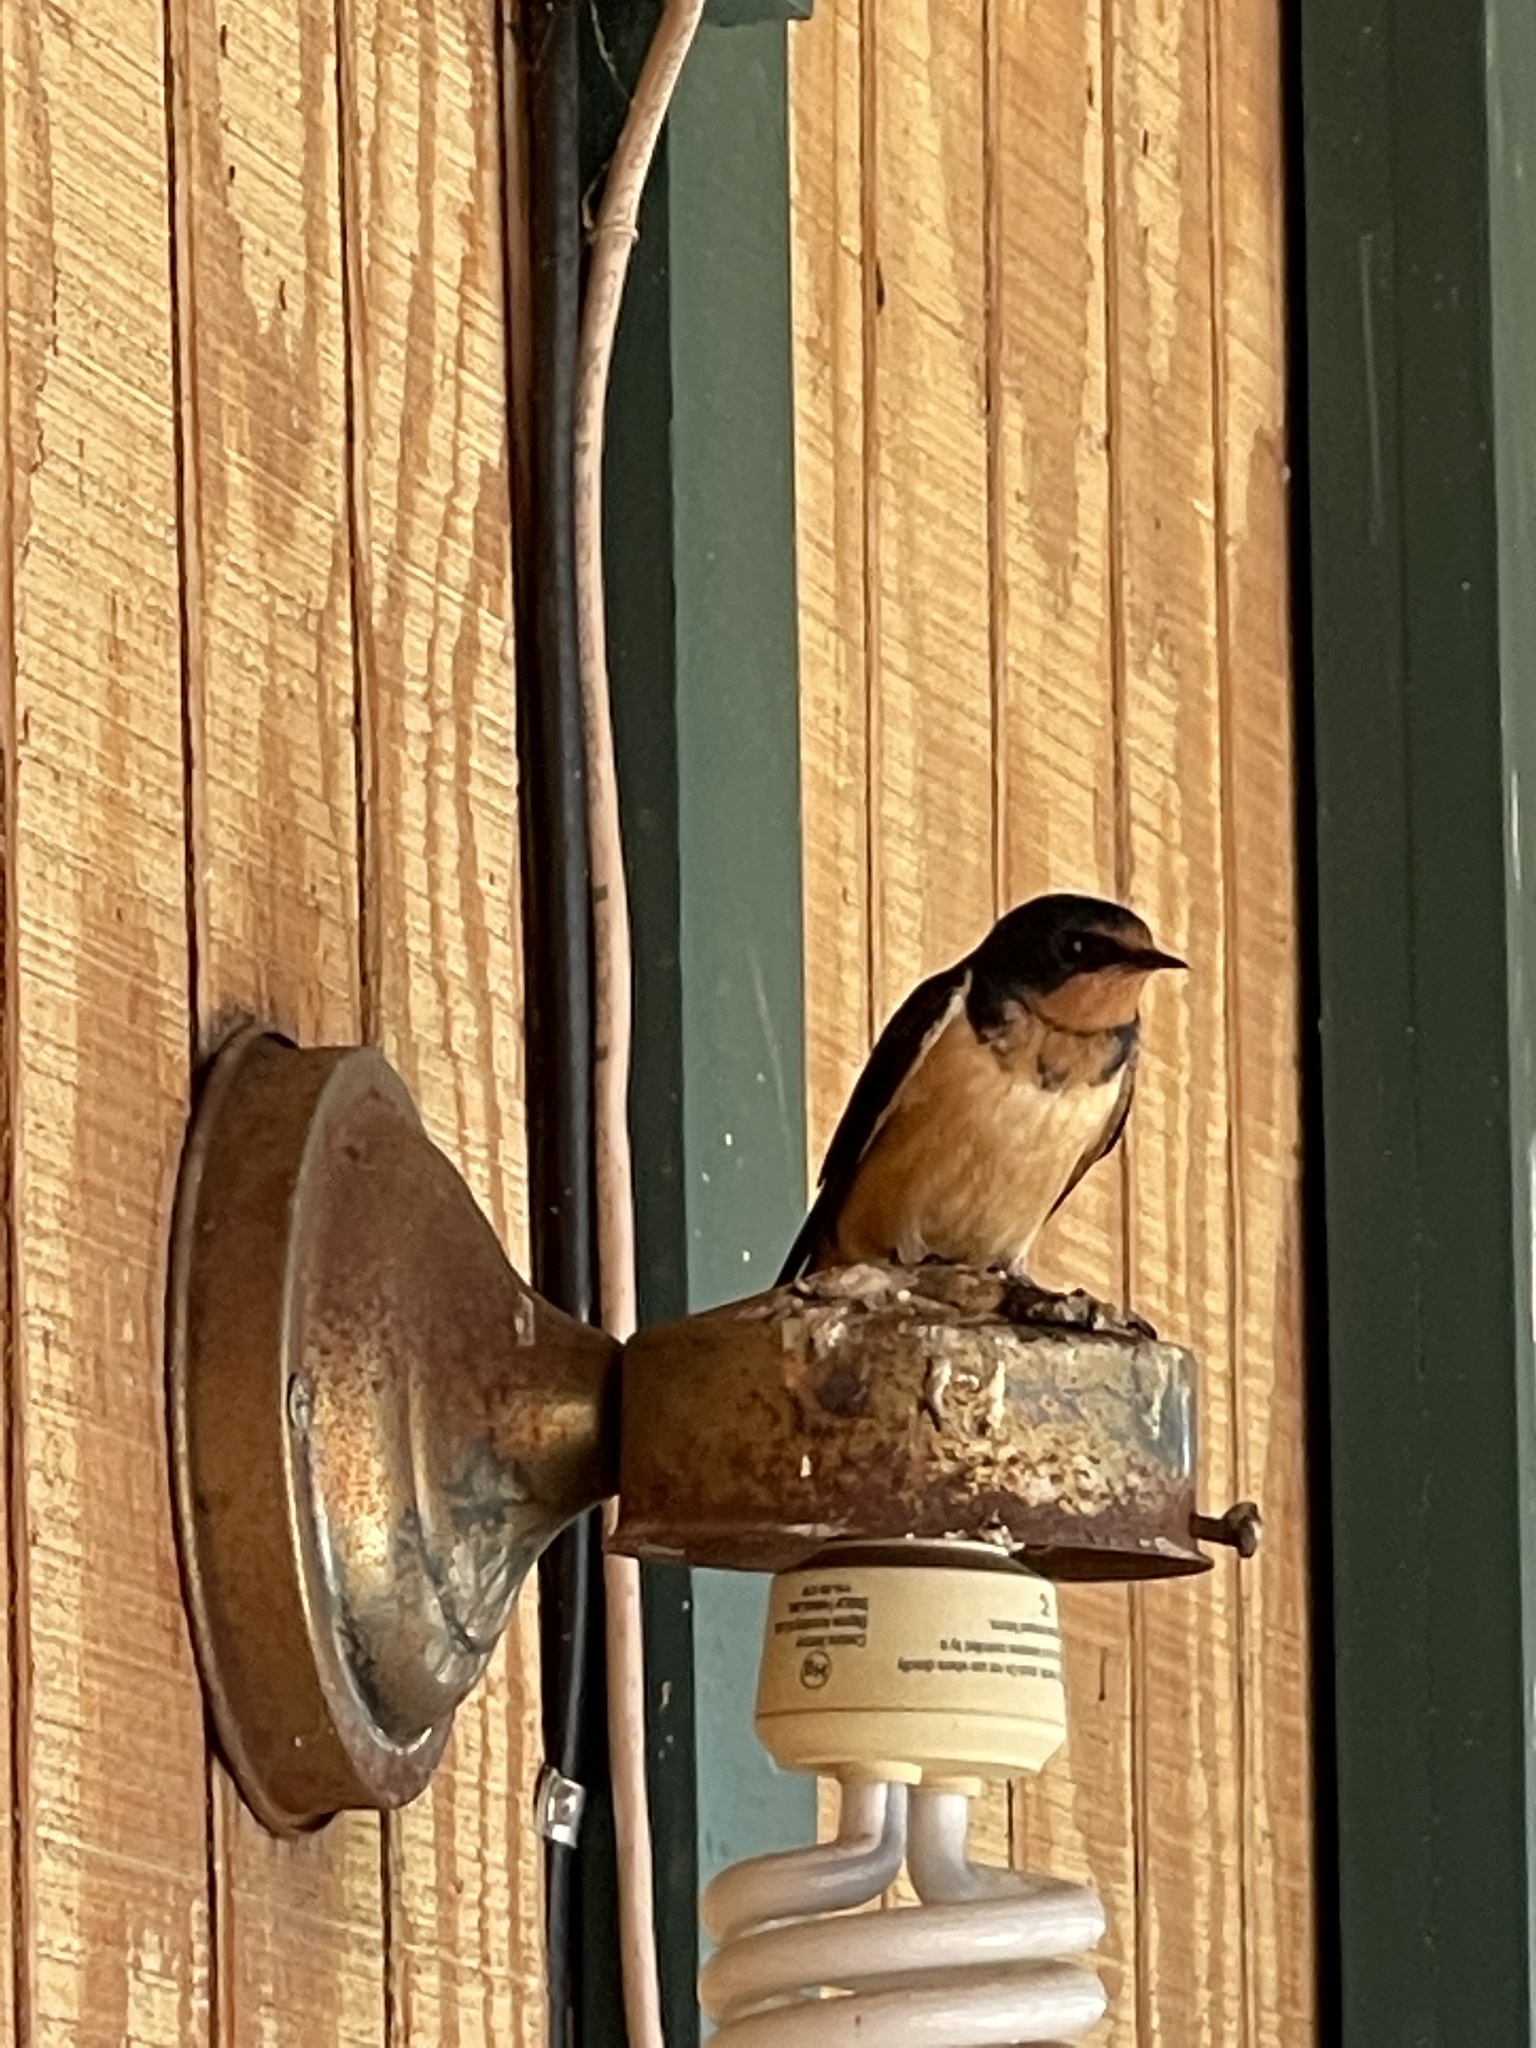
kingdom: Animalia
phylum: Chordata
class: Aves
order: Passeriformes
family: Hirundinidae
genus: Hirundo
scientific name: Hirundo rustica
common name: Barn swallow
